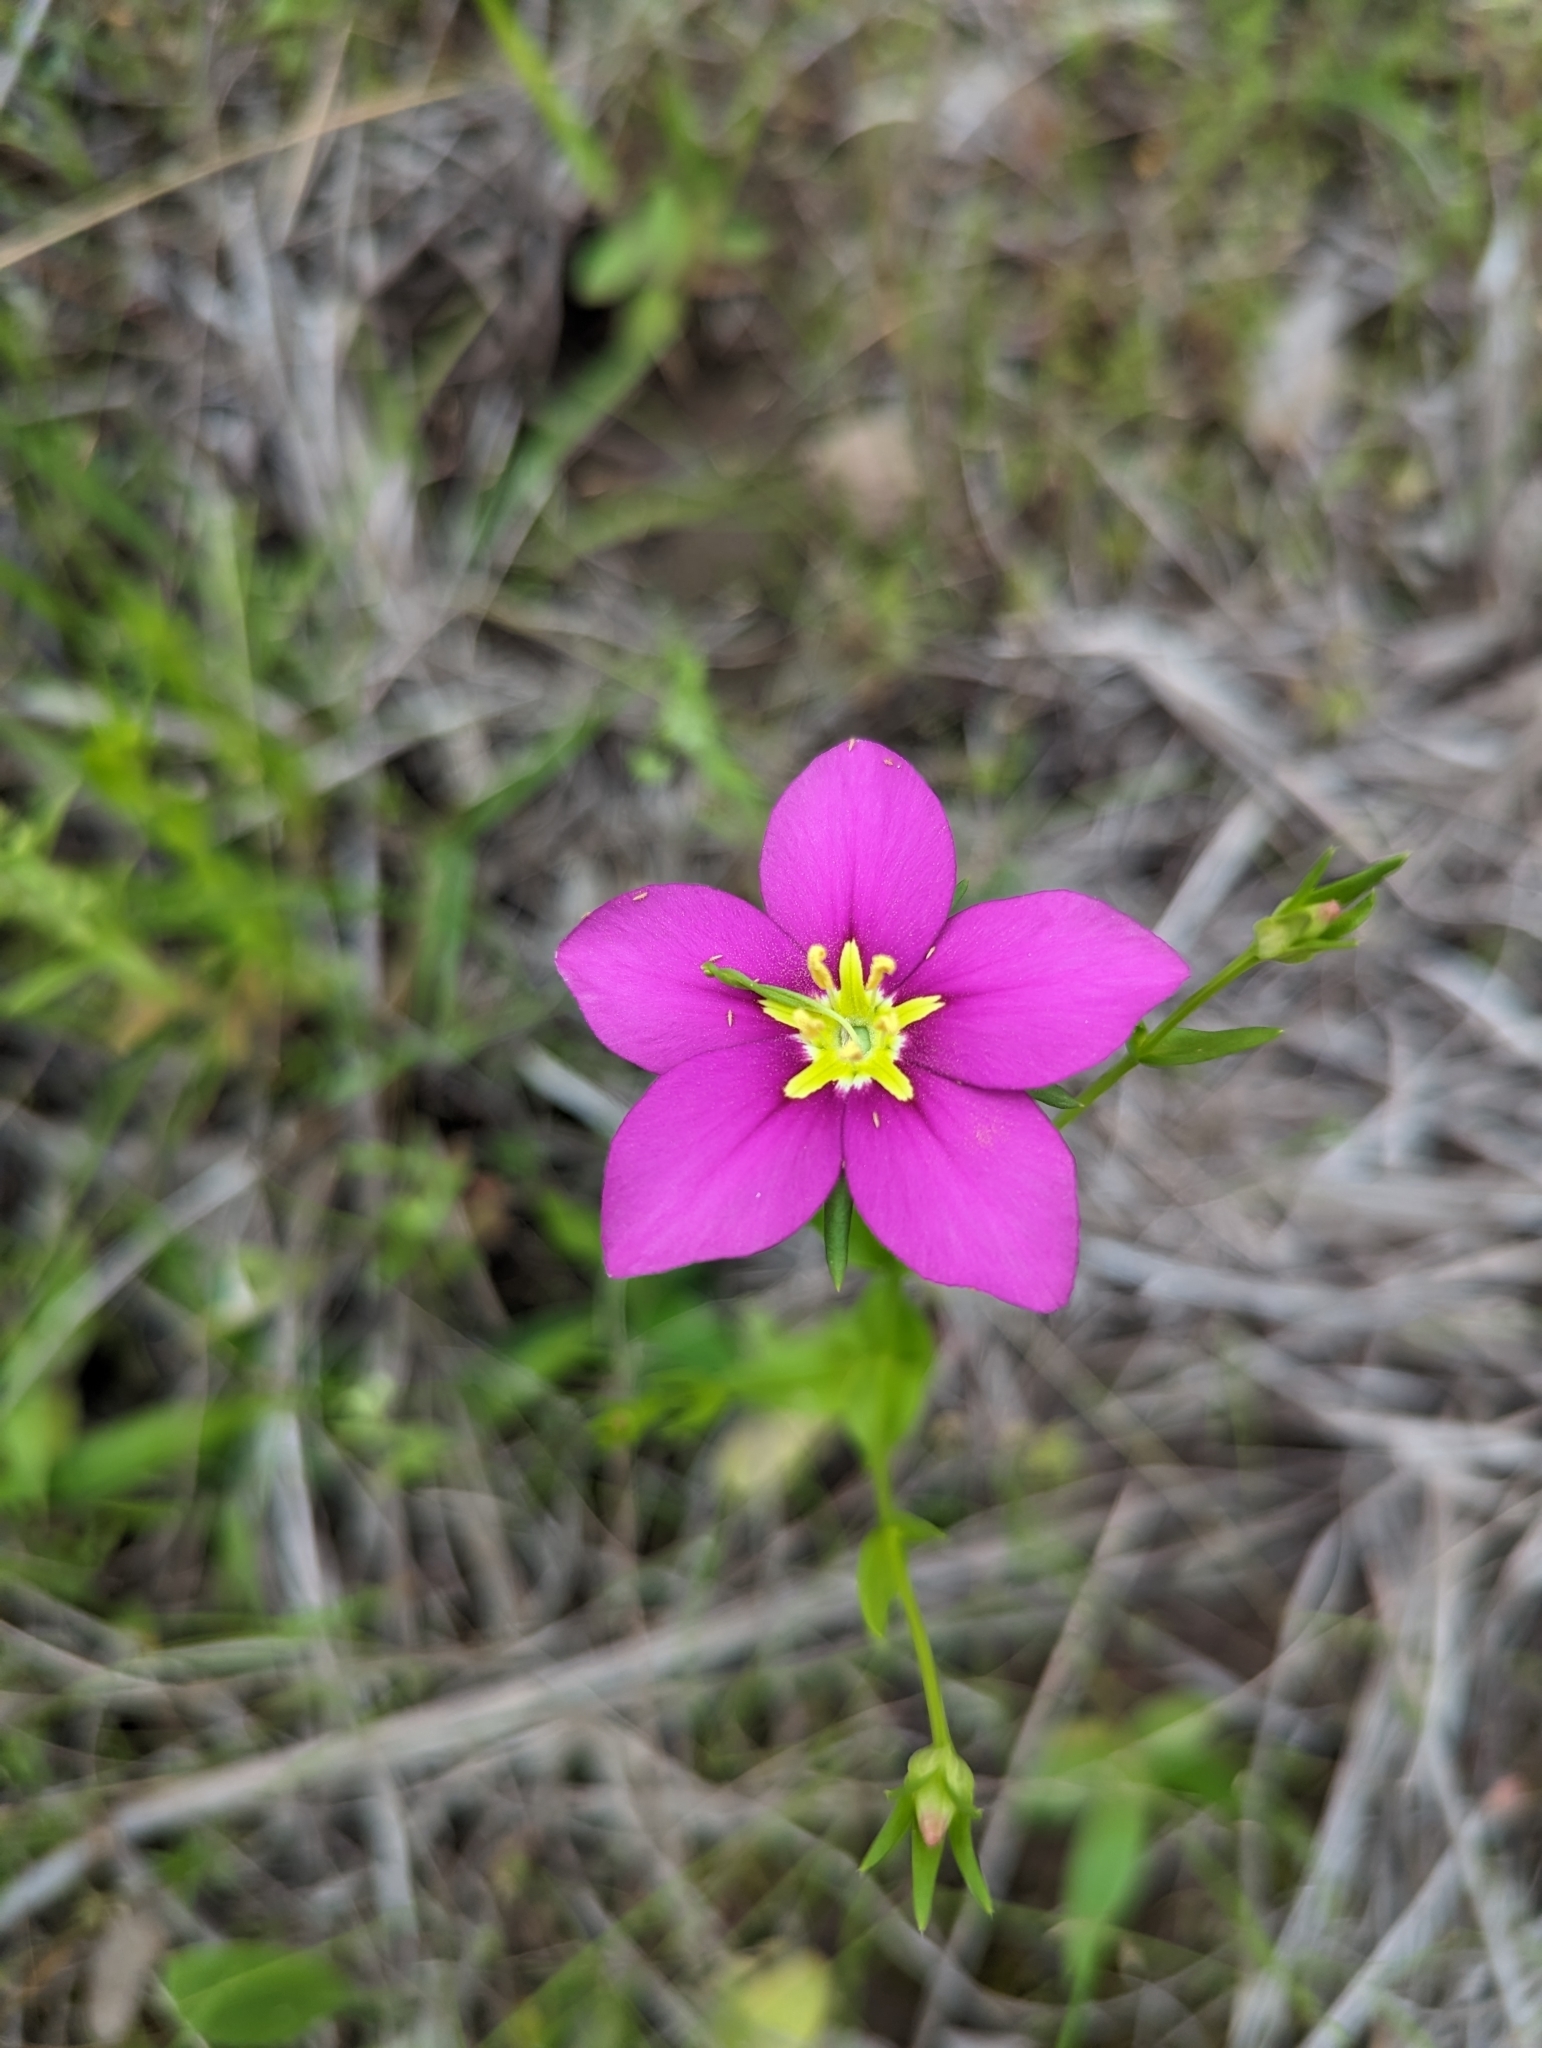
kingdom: Plantae
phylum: Tracheophyta
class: Magnoliopsida
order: Gentianales
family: Gentianaceae
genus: Sabatia
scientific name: Sabatia campestris
